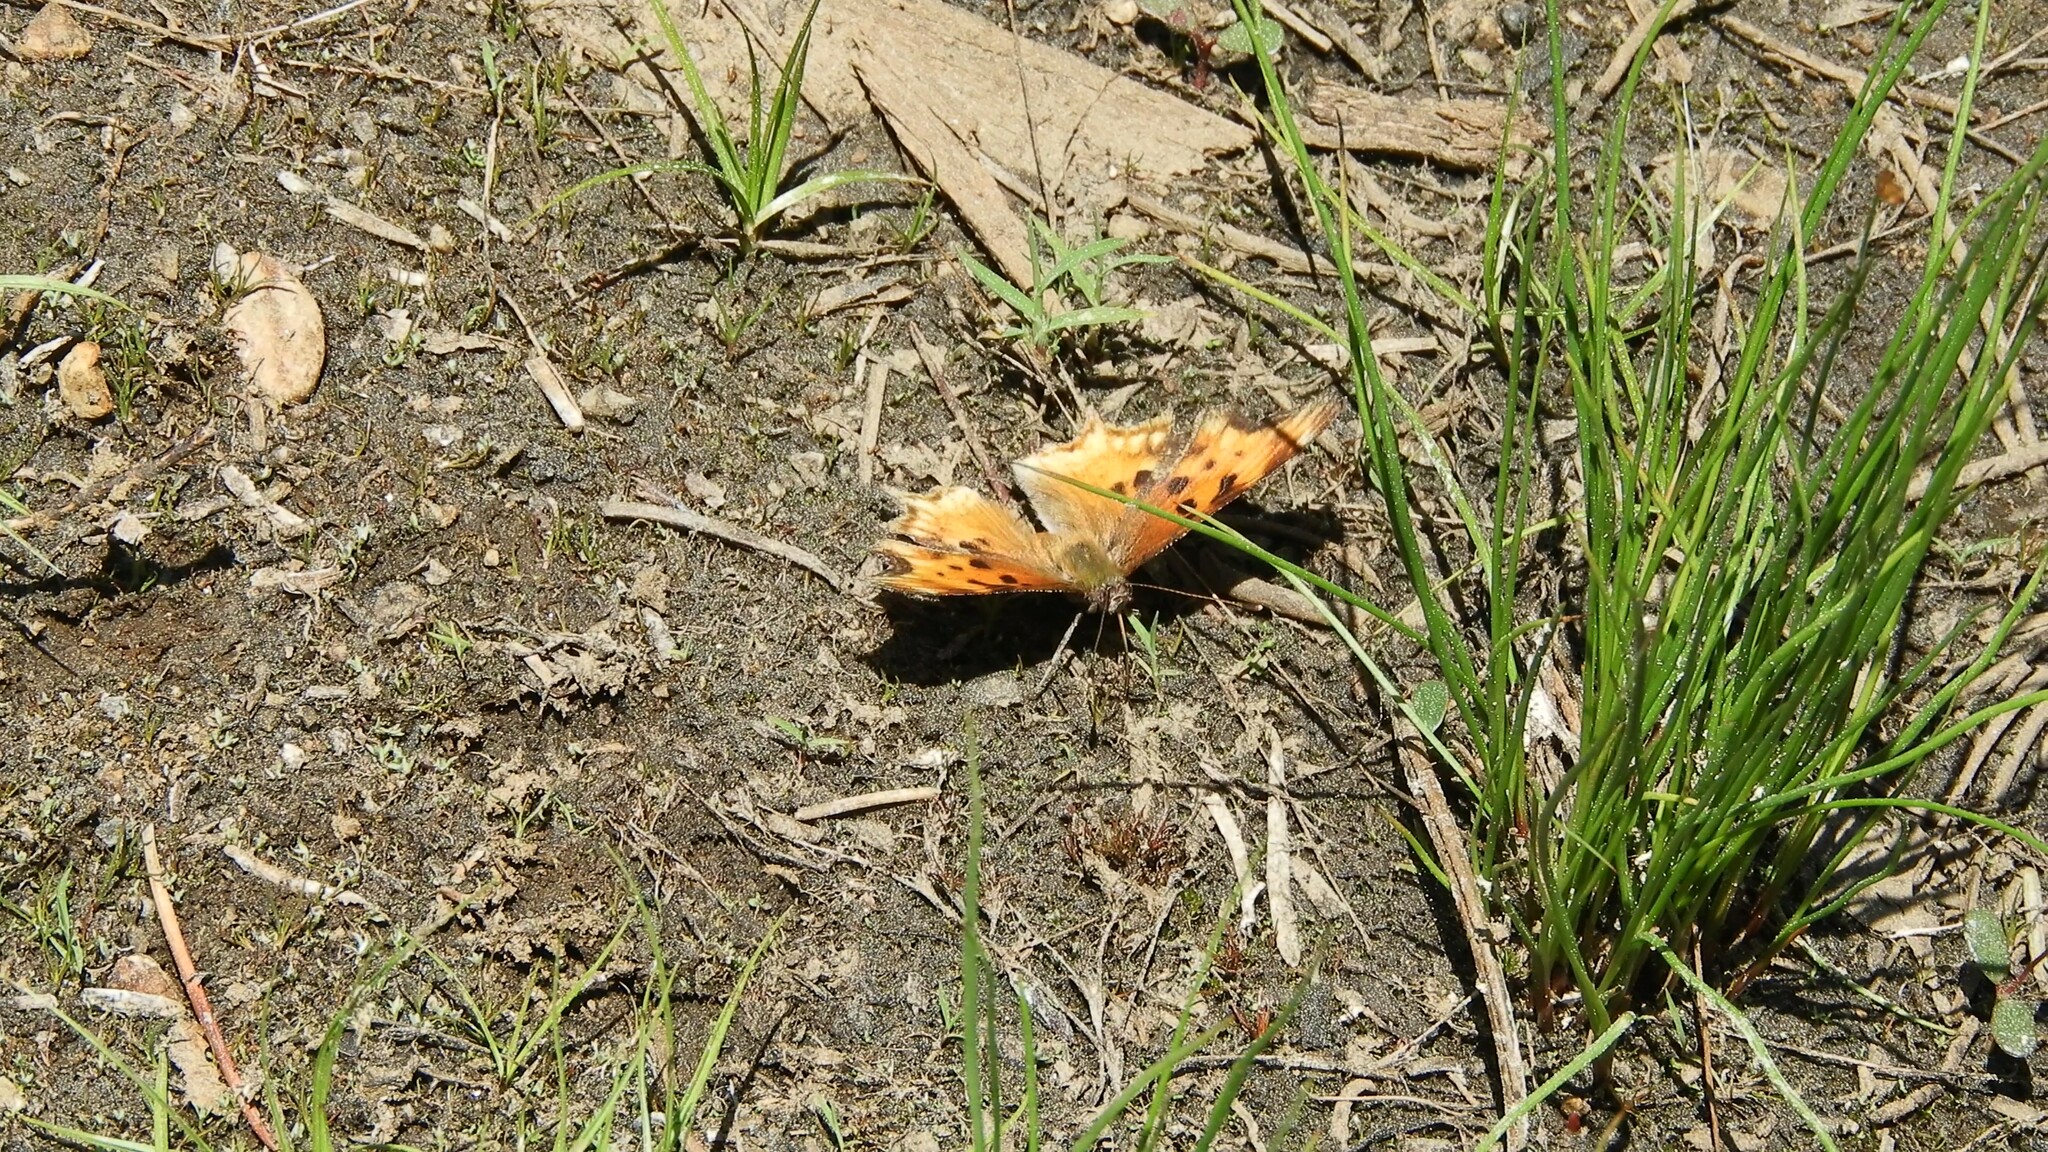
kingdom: Animalia
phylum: Arthropoda
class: Insecta
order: Lepidoptera
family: Nymphalidae
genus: Polygonia
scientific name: Polygonia gracilis
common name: Hoary comma
